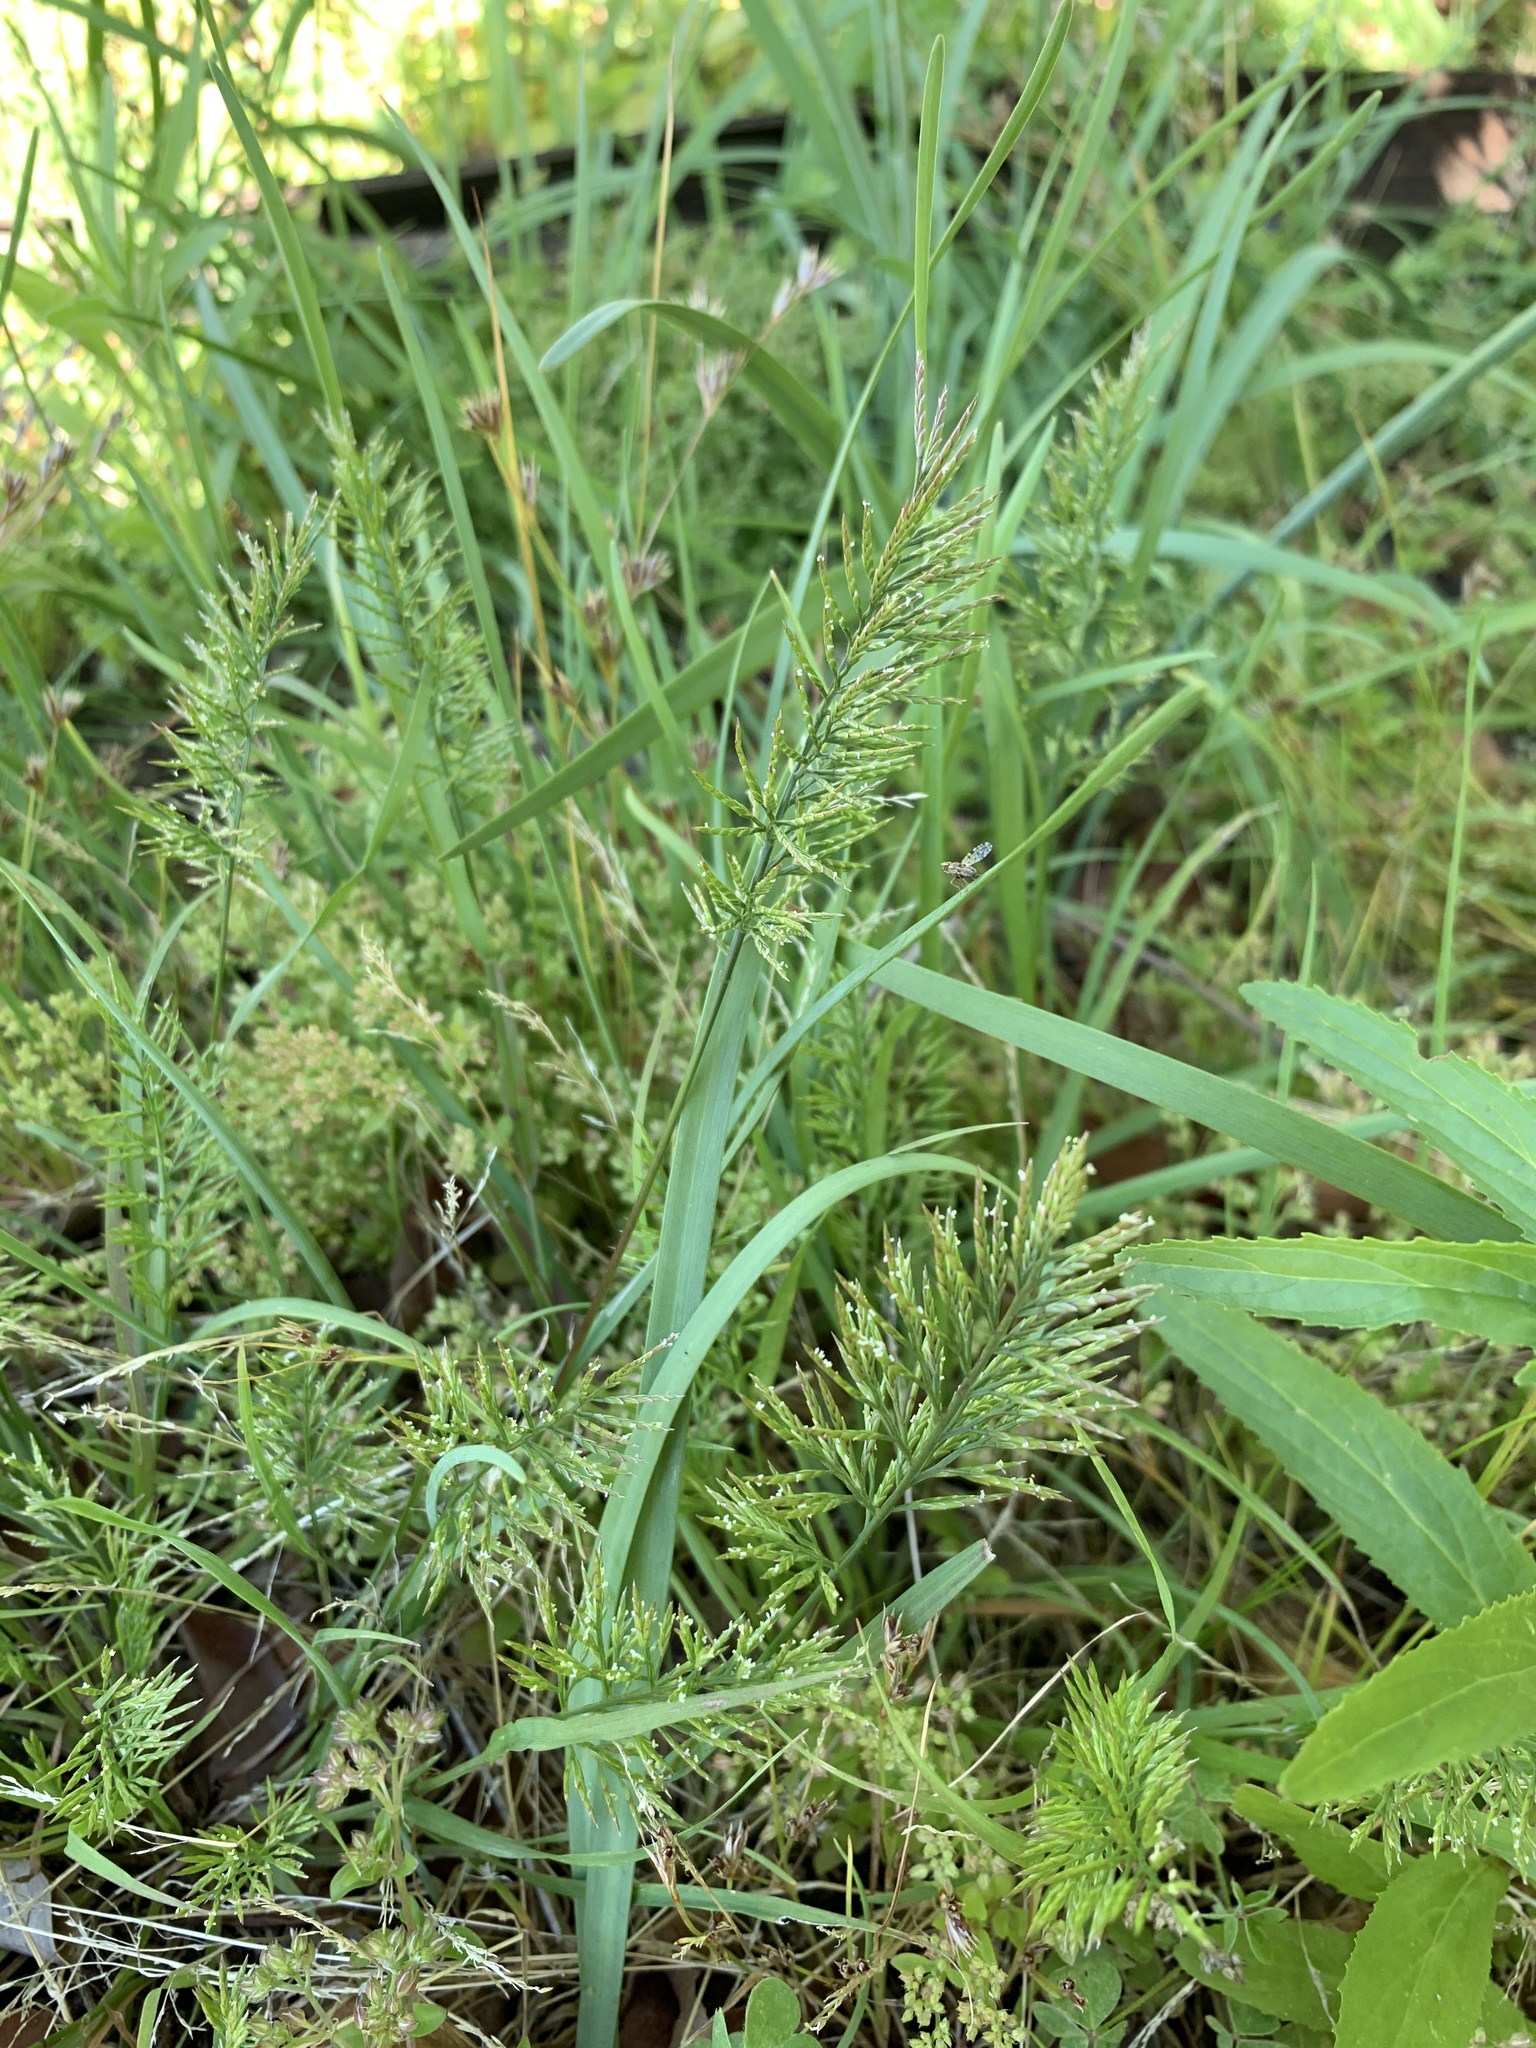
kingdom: Plantae
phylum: Tracheophyta
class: Liliopsida
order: Poales
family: Poaceae
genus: Catapodium
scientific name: Catapodium rigidum
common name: Fern-grass
